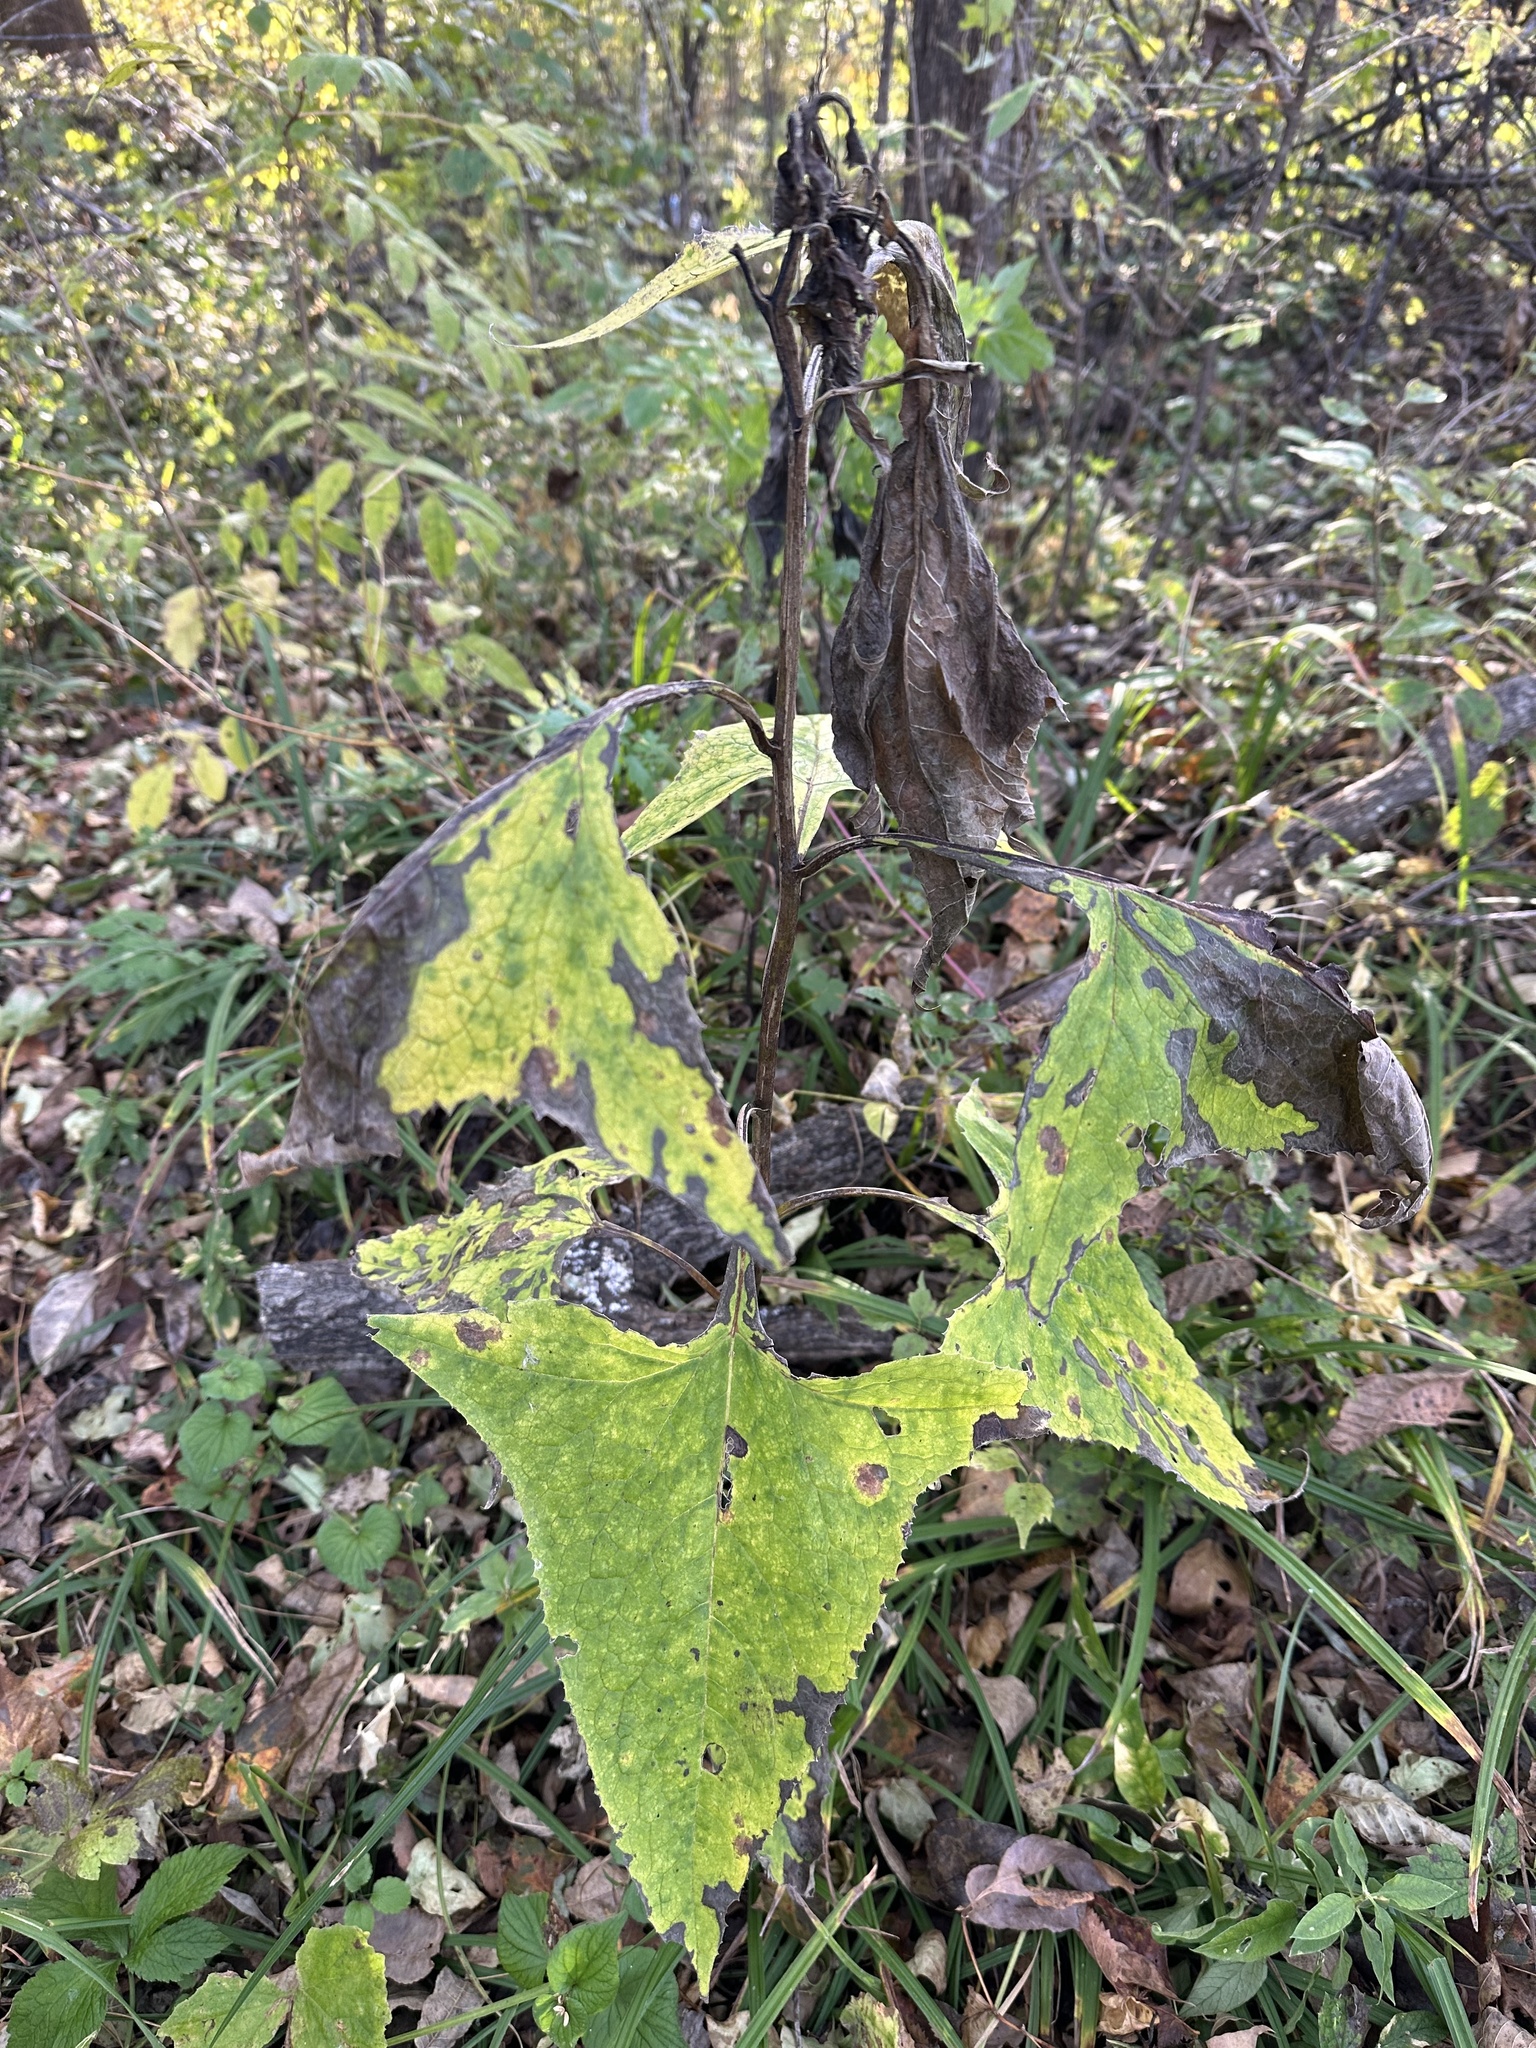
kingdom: Plantae
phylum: Tracheophyta
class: Magnoliopsida
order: Asterales
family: Asteraceae
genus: Parasenecio
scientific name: Parasenecio hastatus
